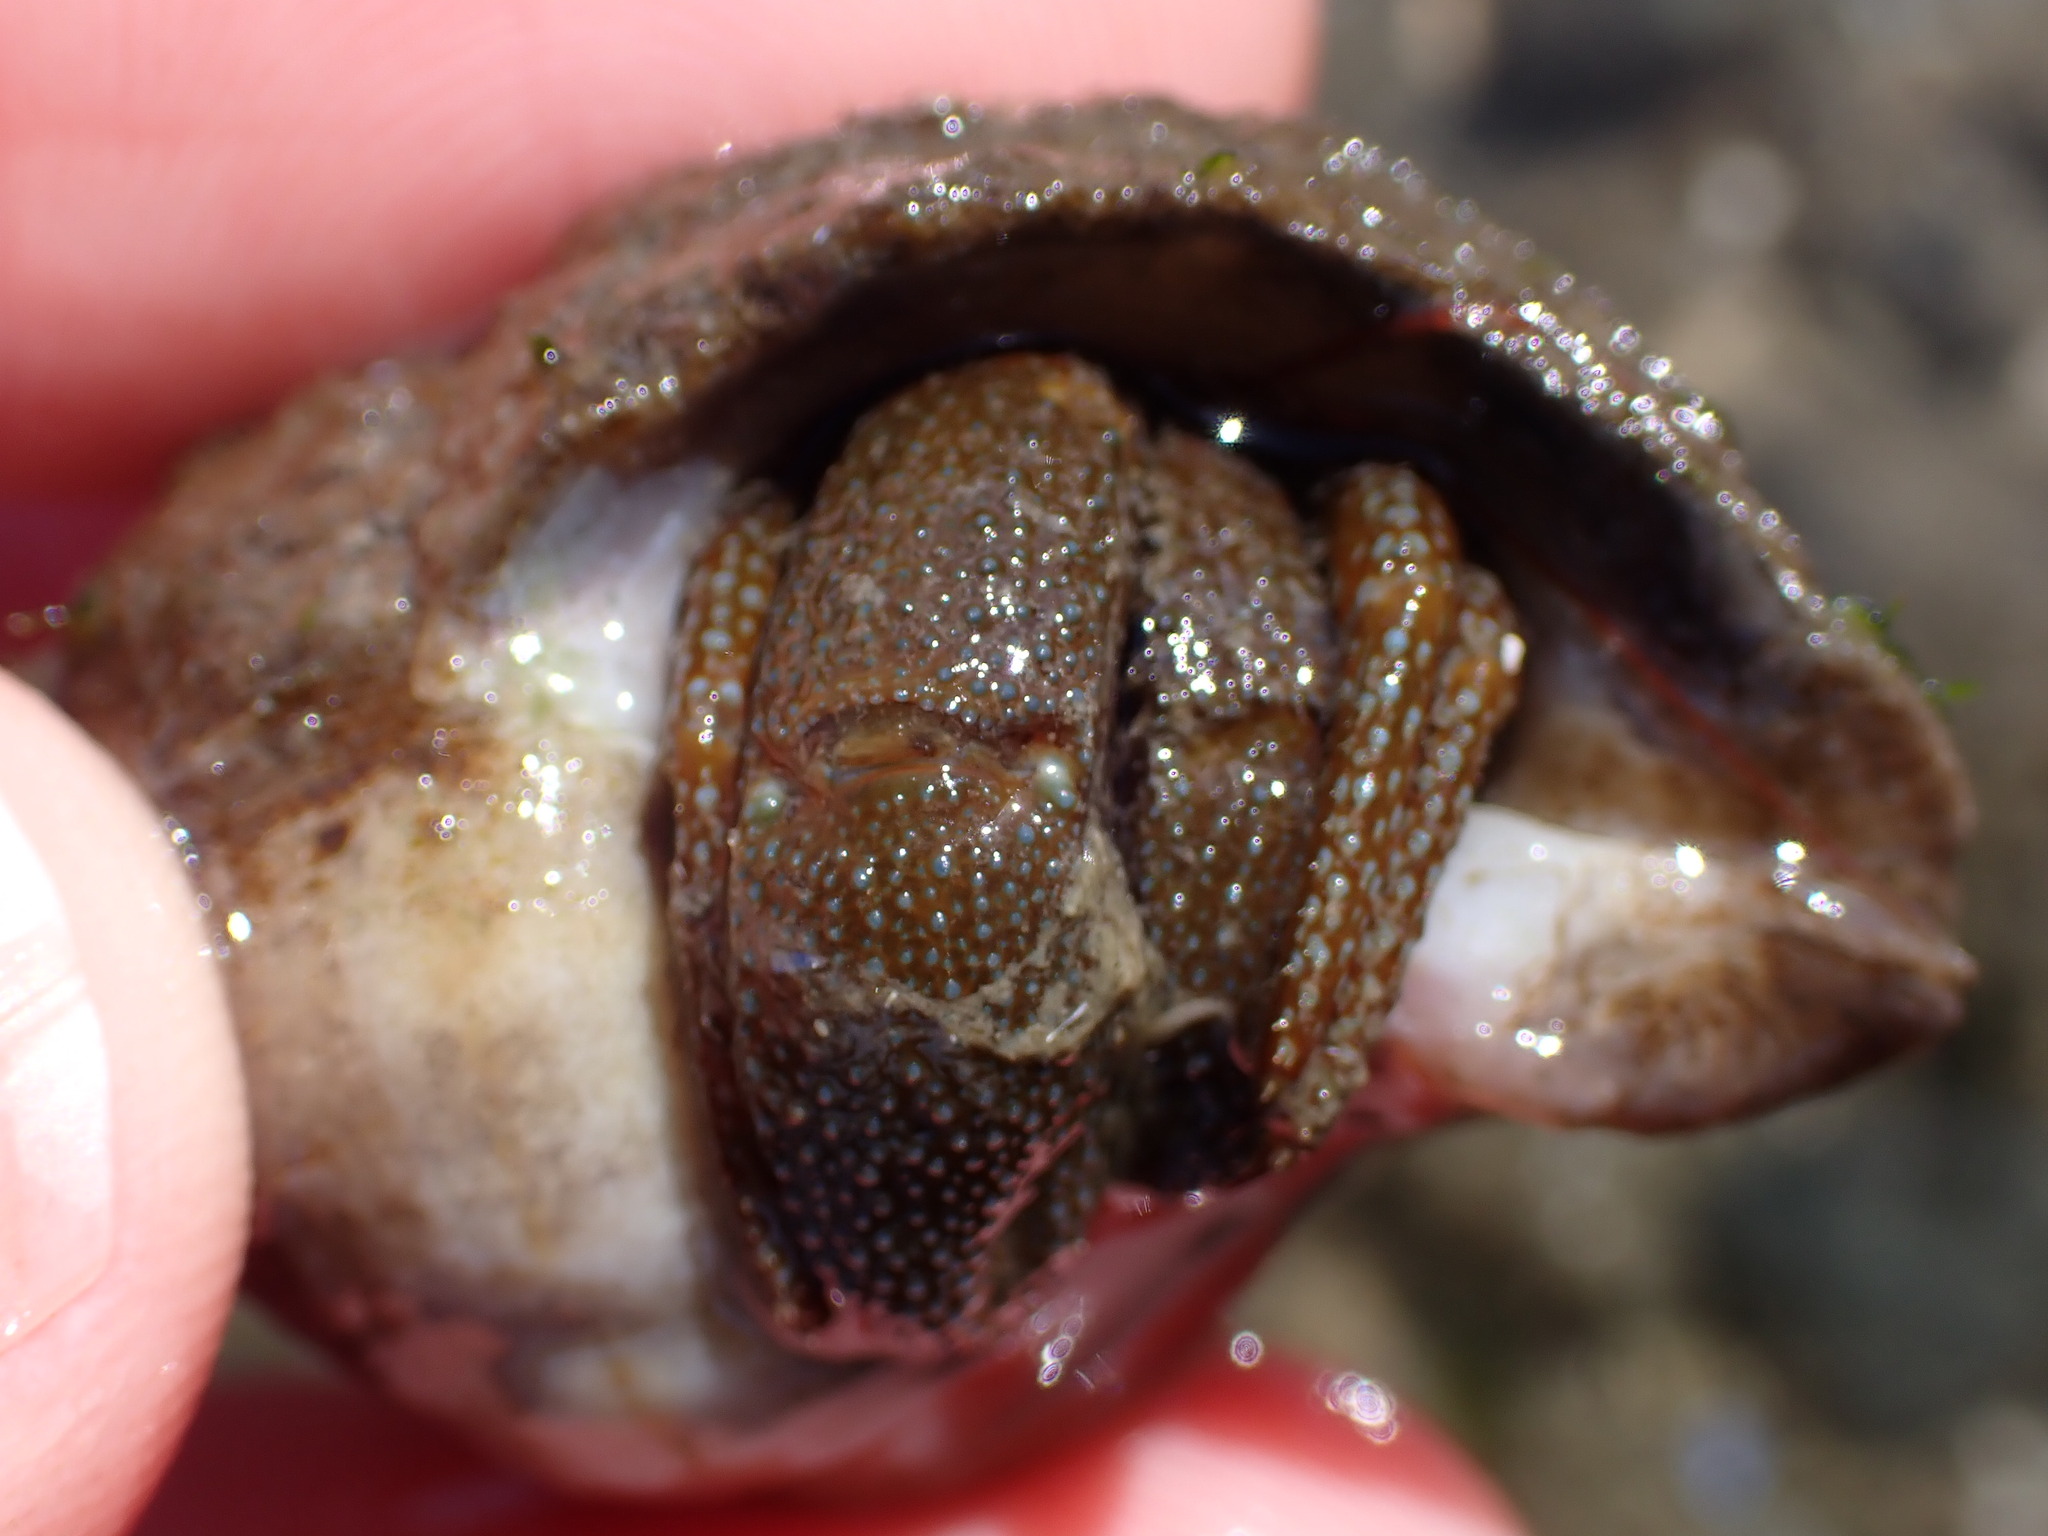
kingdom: Animalia
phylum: Arthropoda
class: Malacostraca
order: Decapoda
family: Paguridae
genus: Pagurus
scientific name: Pagurus granosimanus
